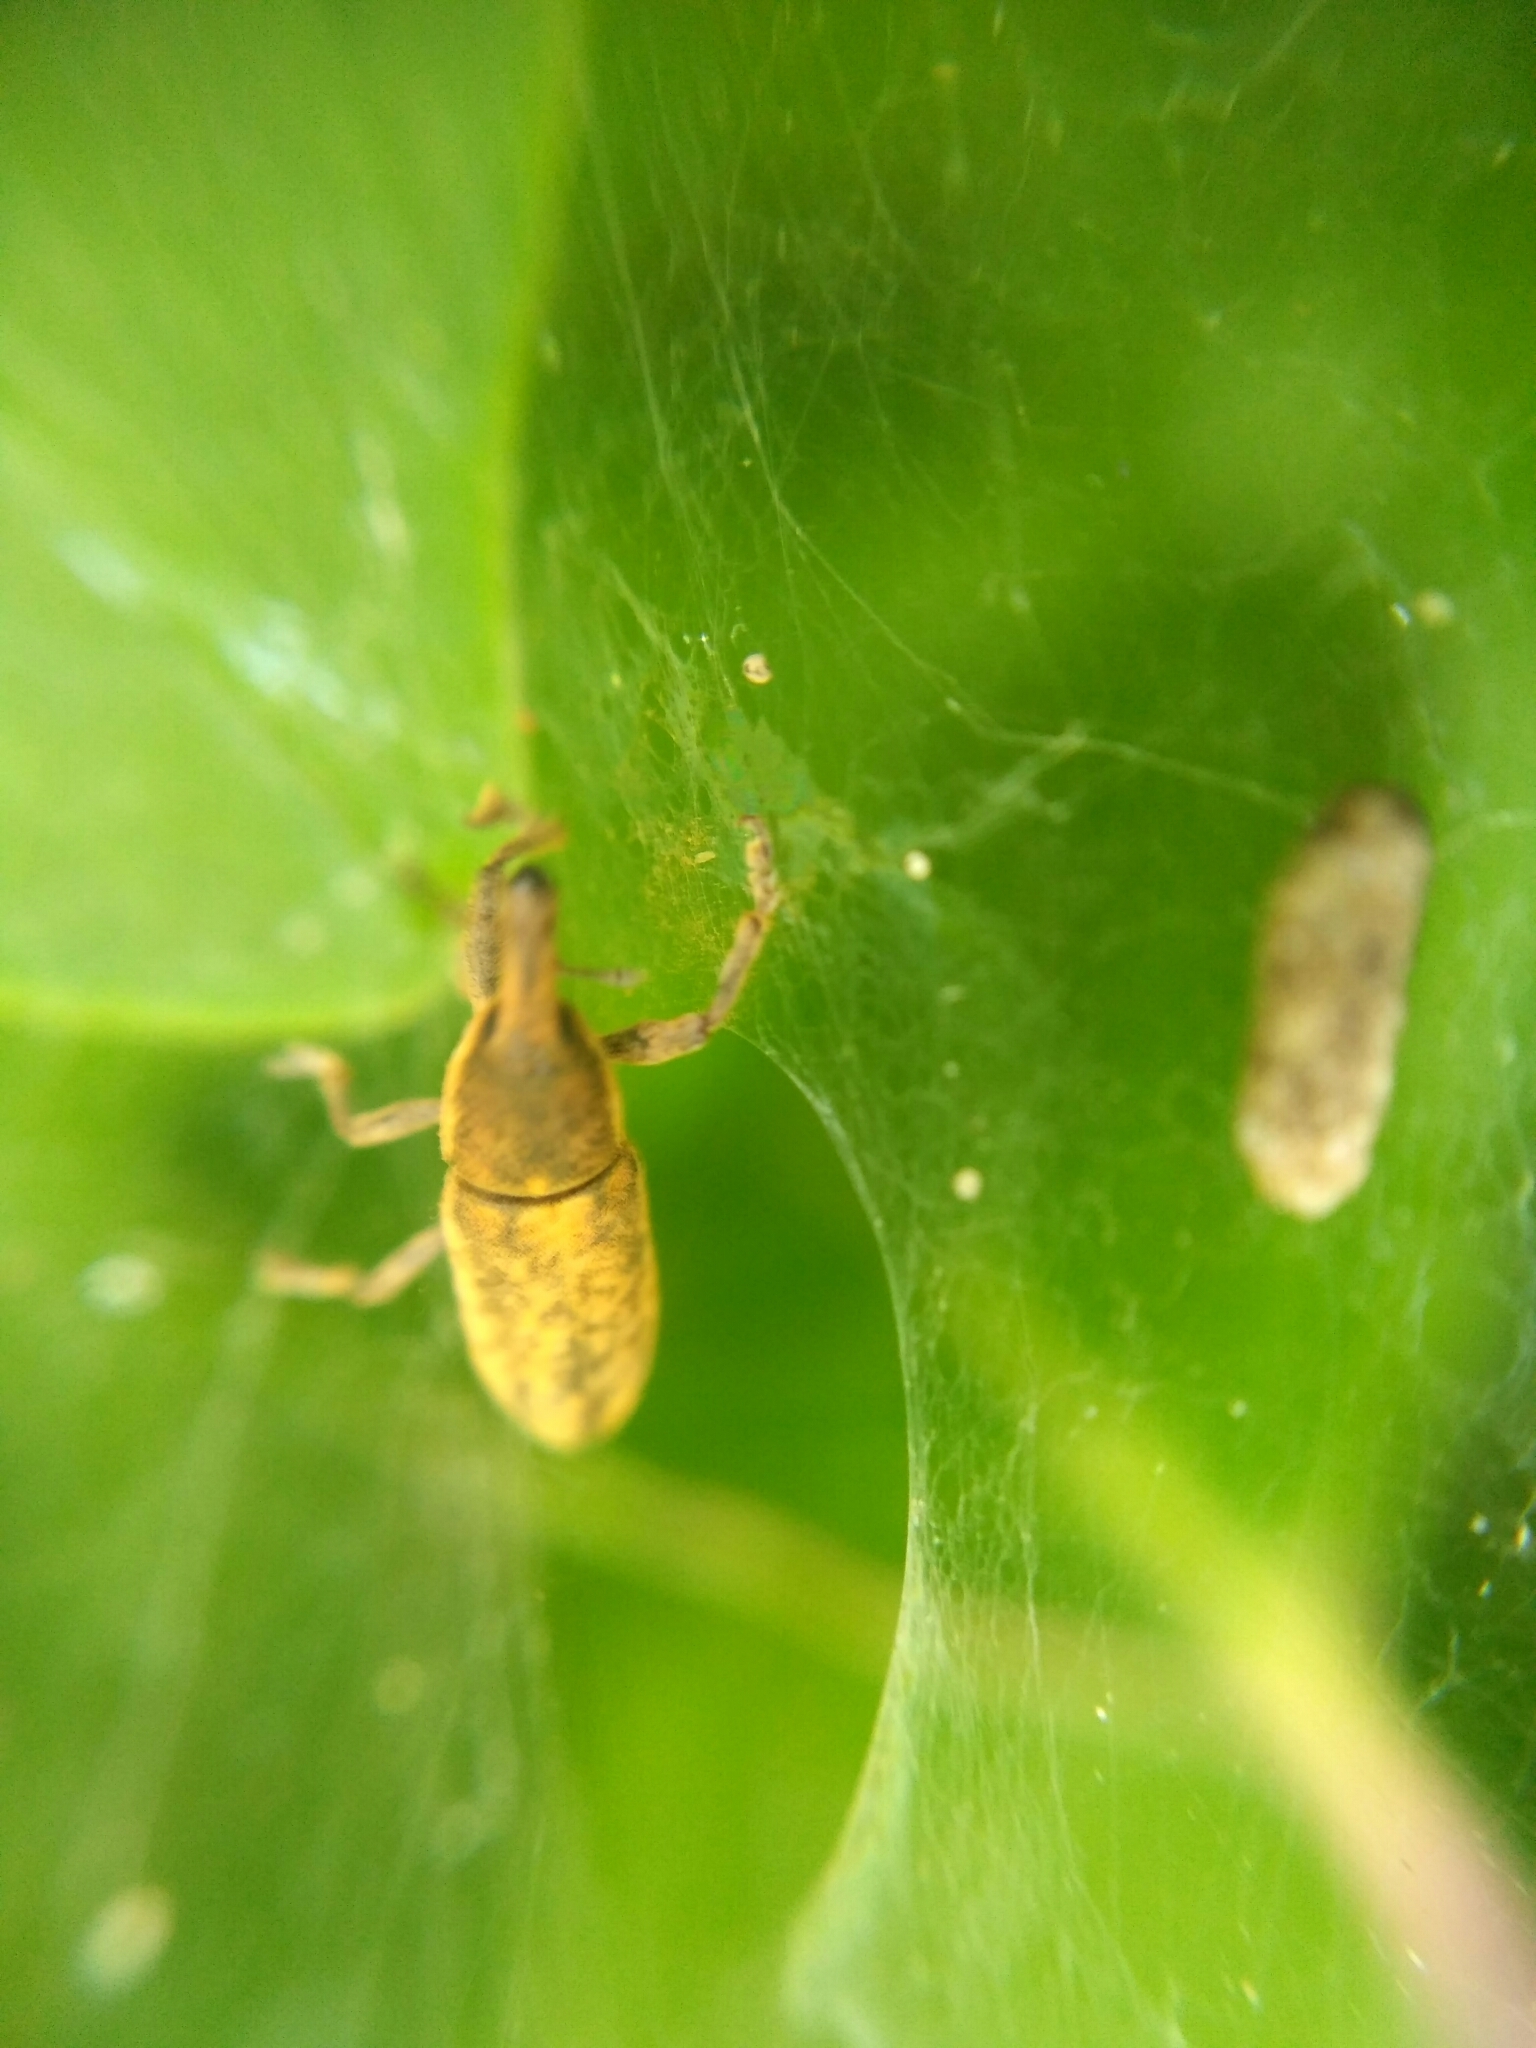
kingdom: Animalia
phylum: Arthropoda
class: Insecta
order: Coleoptera
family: Curculionidae
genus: Lixus
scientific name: Lixus subtilis
